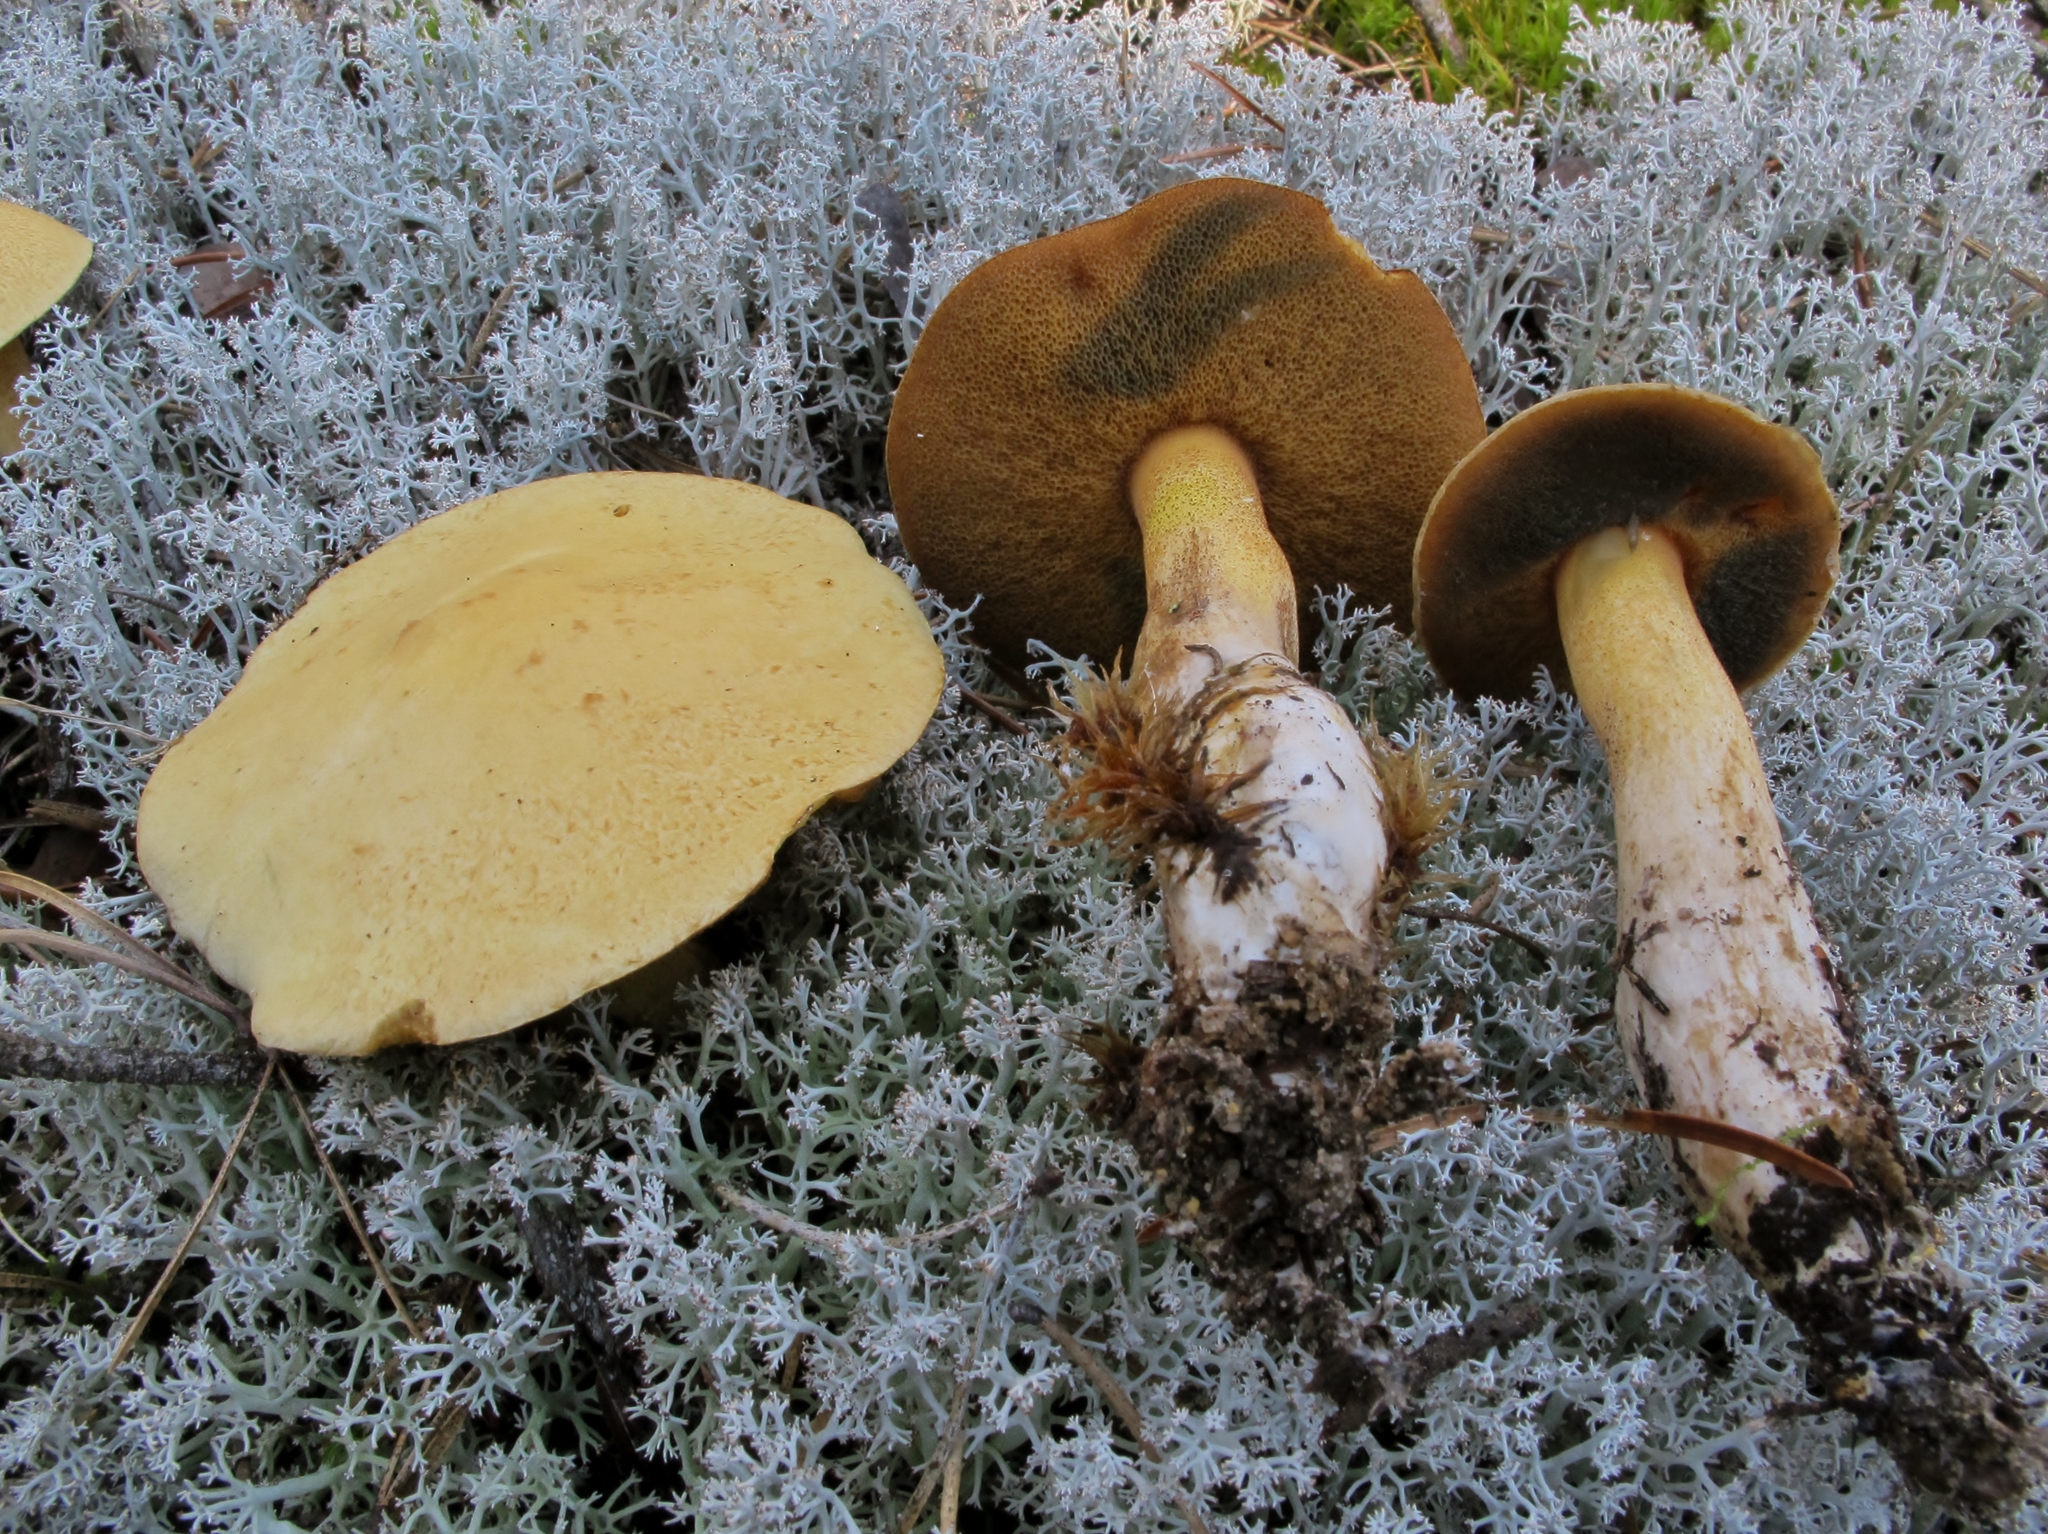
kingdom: Fungi
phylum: Basidiomycota
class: Agaricomycetes
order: Boletales
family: Suillaceae
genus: Suillus
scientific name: Suillus tomentosus
